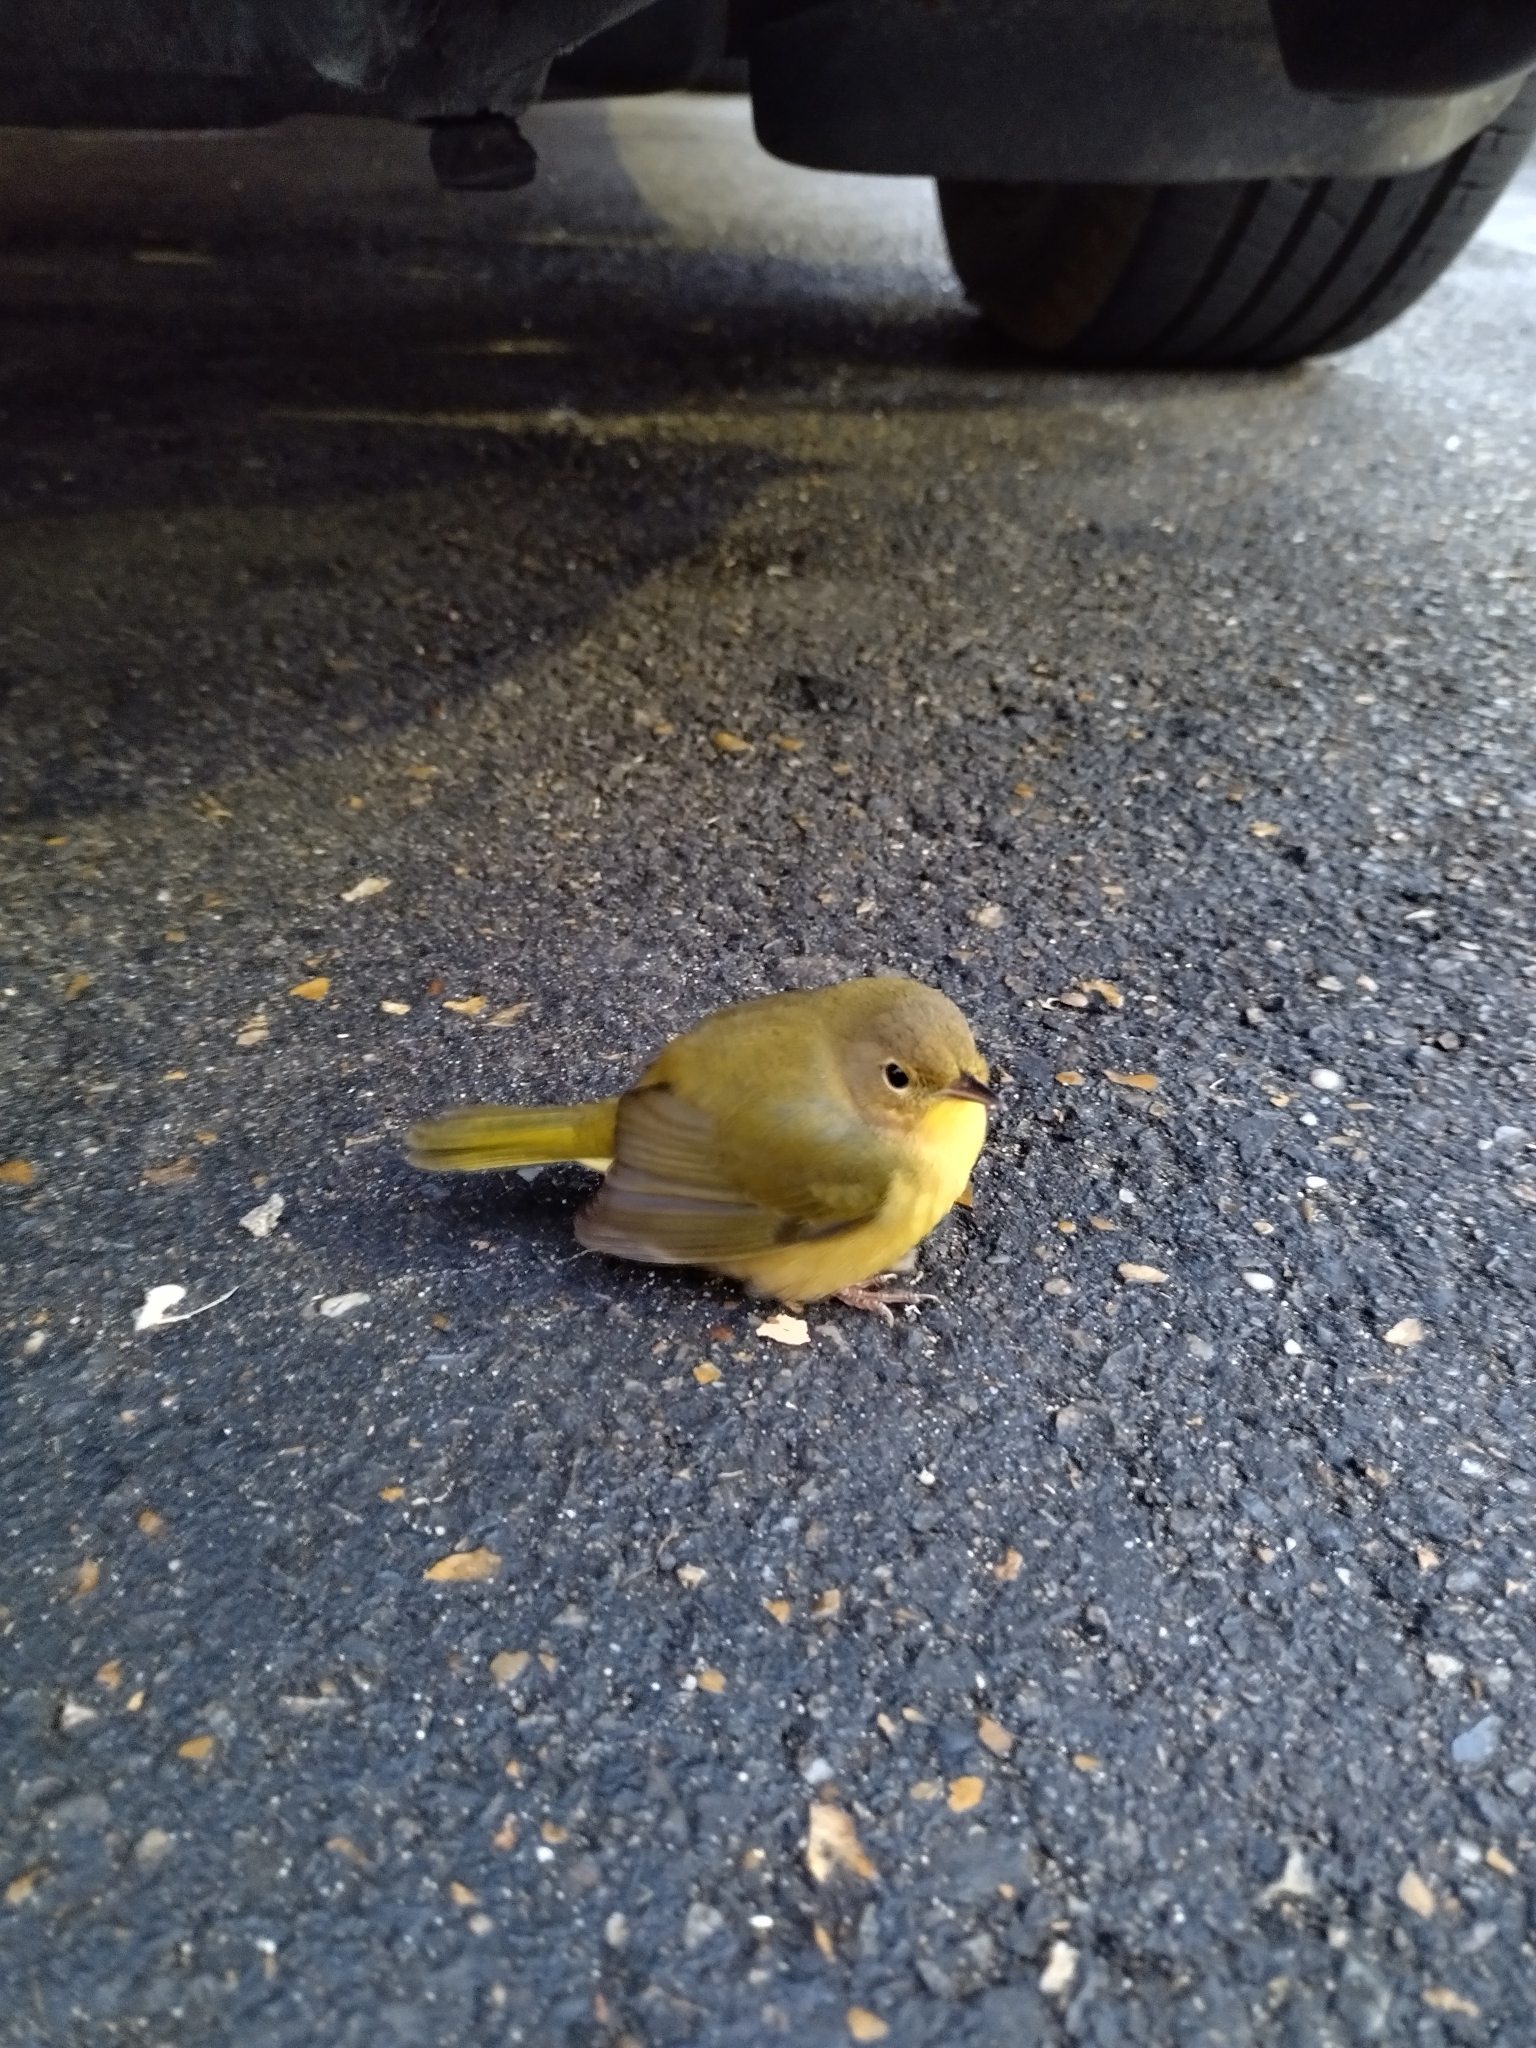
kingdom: Animalia
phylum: Chordata
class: Aves
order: Passeriformes
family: Parulidae
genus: Geothlypis
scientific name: Geothlypis trichas
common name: Common yellowthroat
